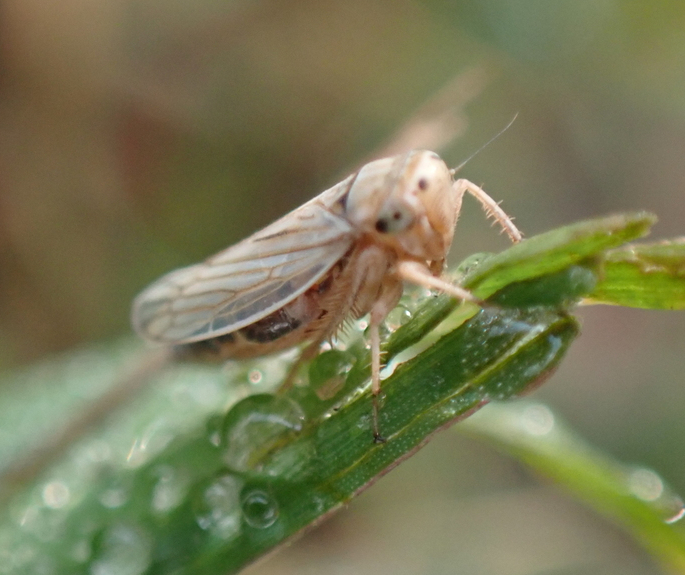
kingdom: Animalia
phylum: Arthropoda
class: Insecta
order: Hemiptera
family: Cicadellidae
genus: Exitianus
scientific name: Exitianus exitiosus
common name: Gray lawn leafhopper
